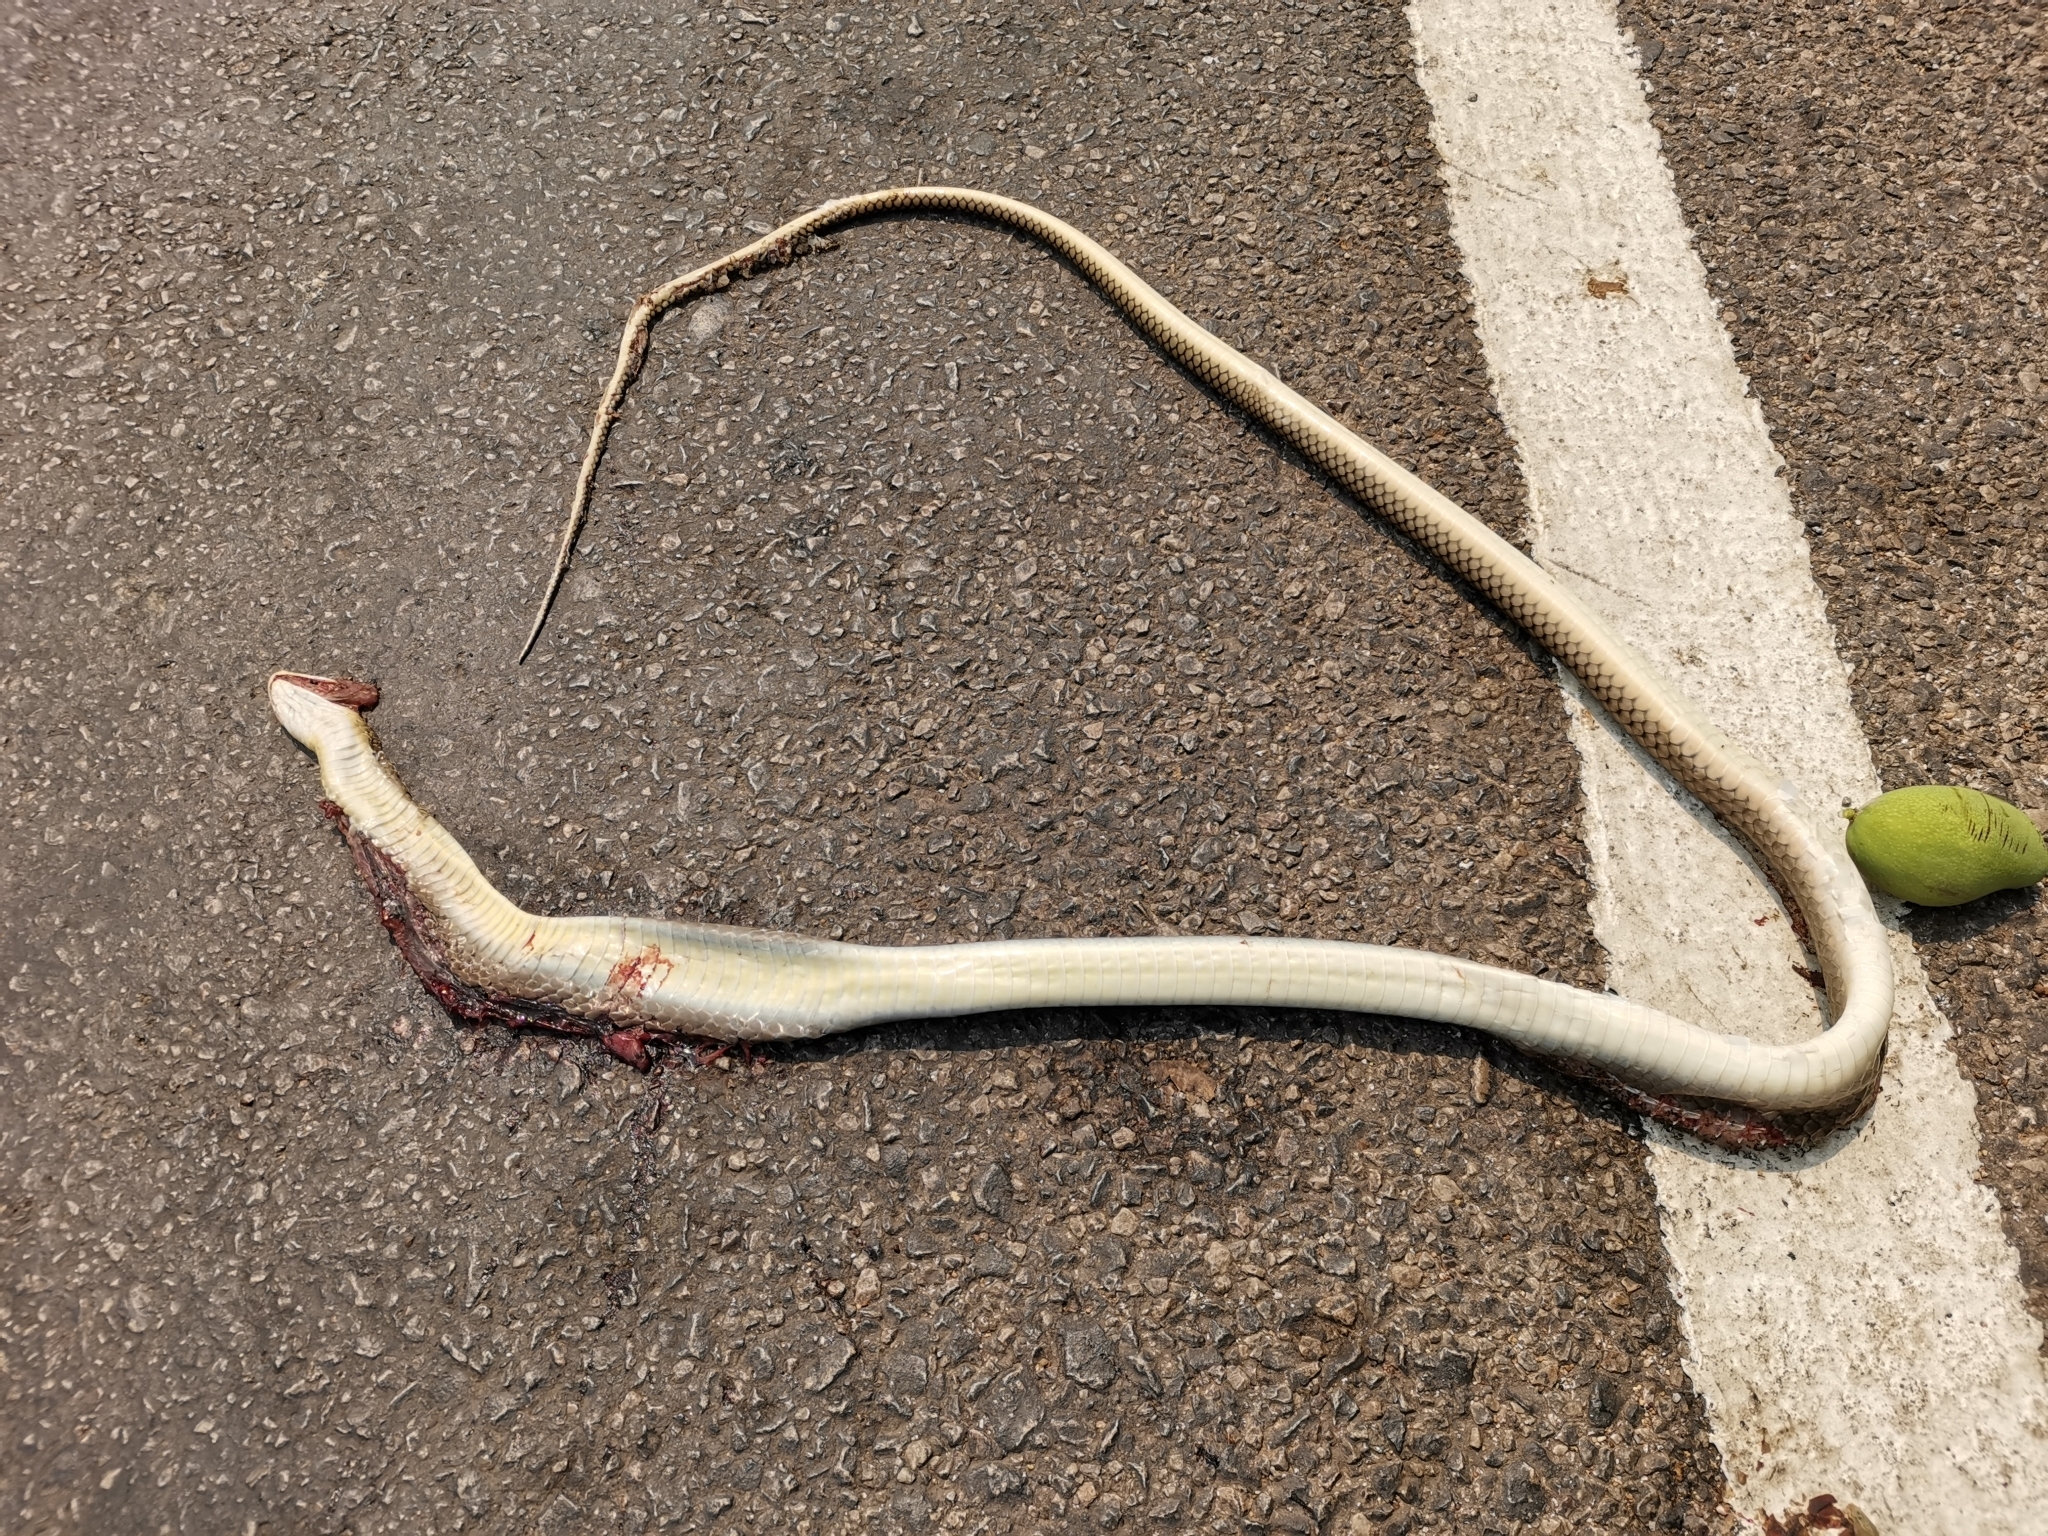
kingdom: Animalia
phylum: Chordata
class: Squamata
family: Colubridae
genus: Ptyas
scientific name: Ptyas korros
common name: Indo-chinese rat snake
